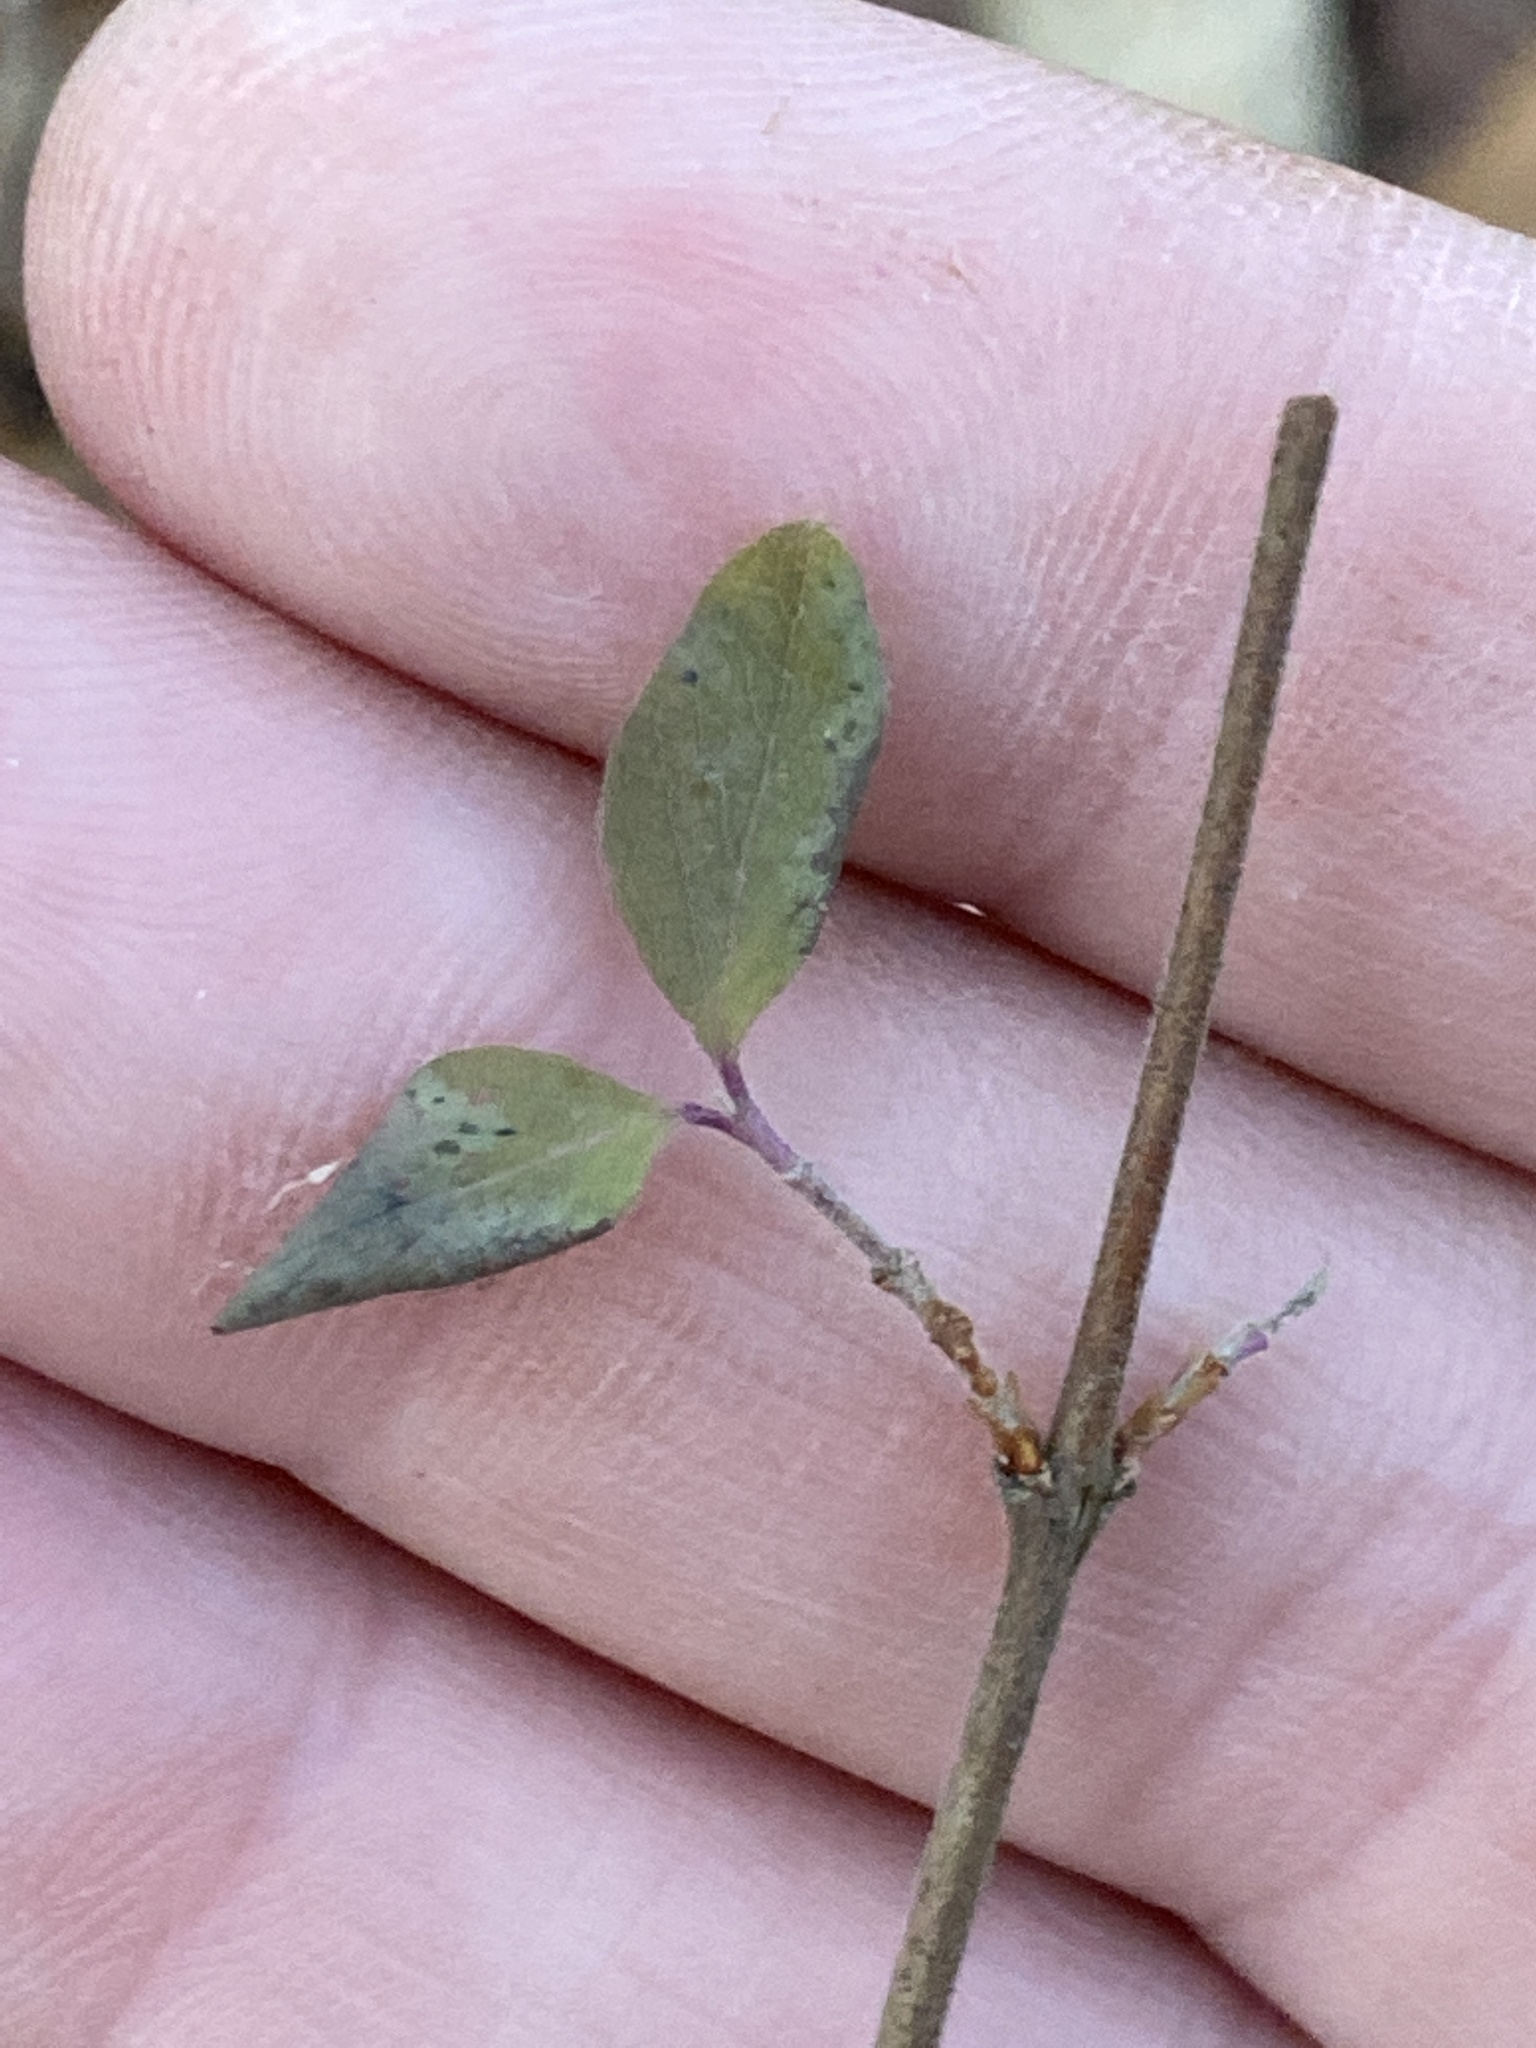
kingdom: Plantae
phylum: Tracheophyta
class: Magnoliopsida
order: Dipsacales
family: Caprifoliaceae
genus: Symphoricarpos
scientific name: Symphoricarpos orbiculatus
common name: Coralberry
